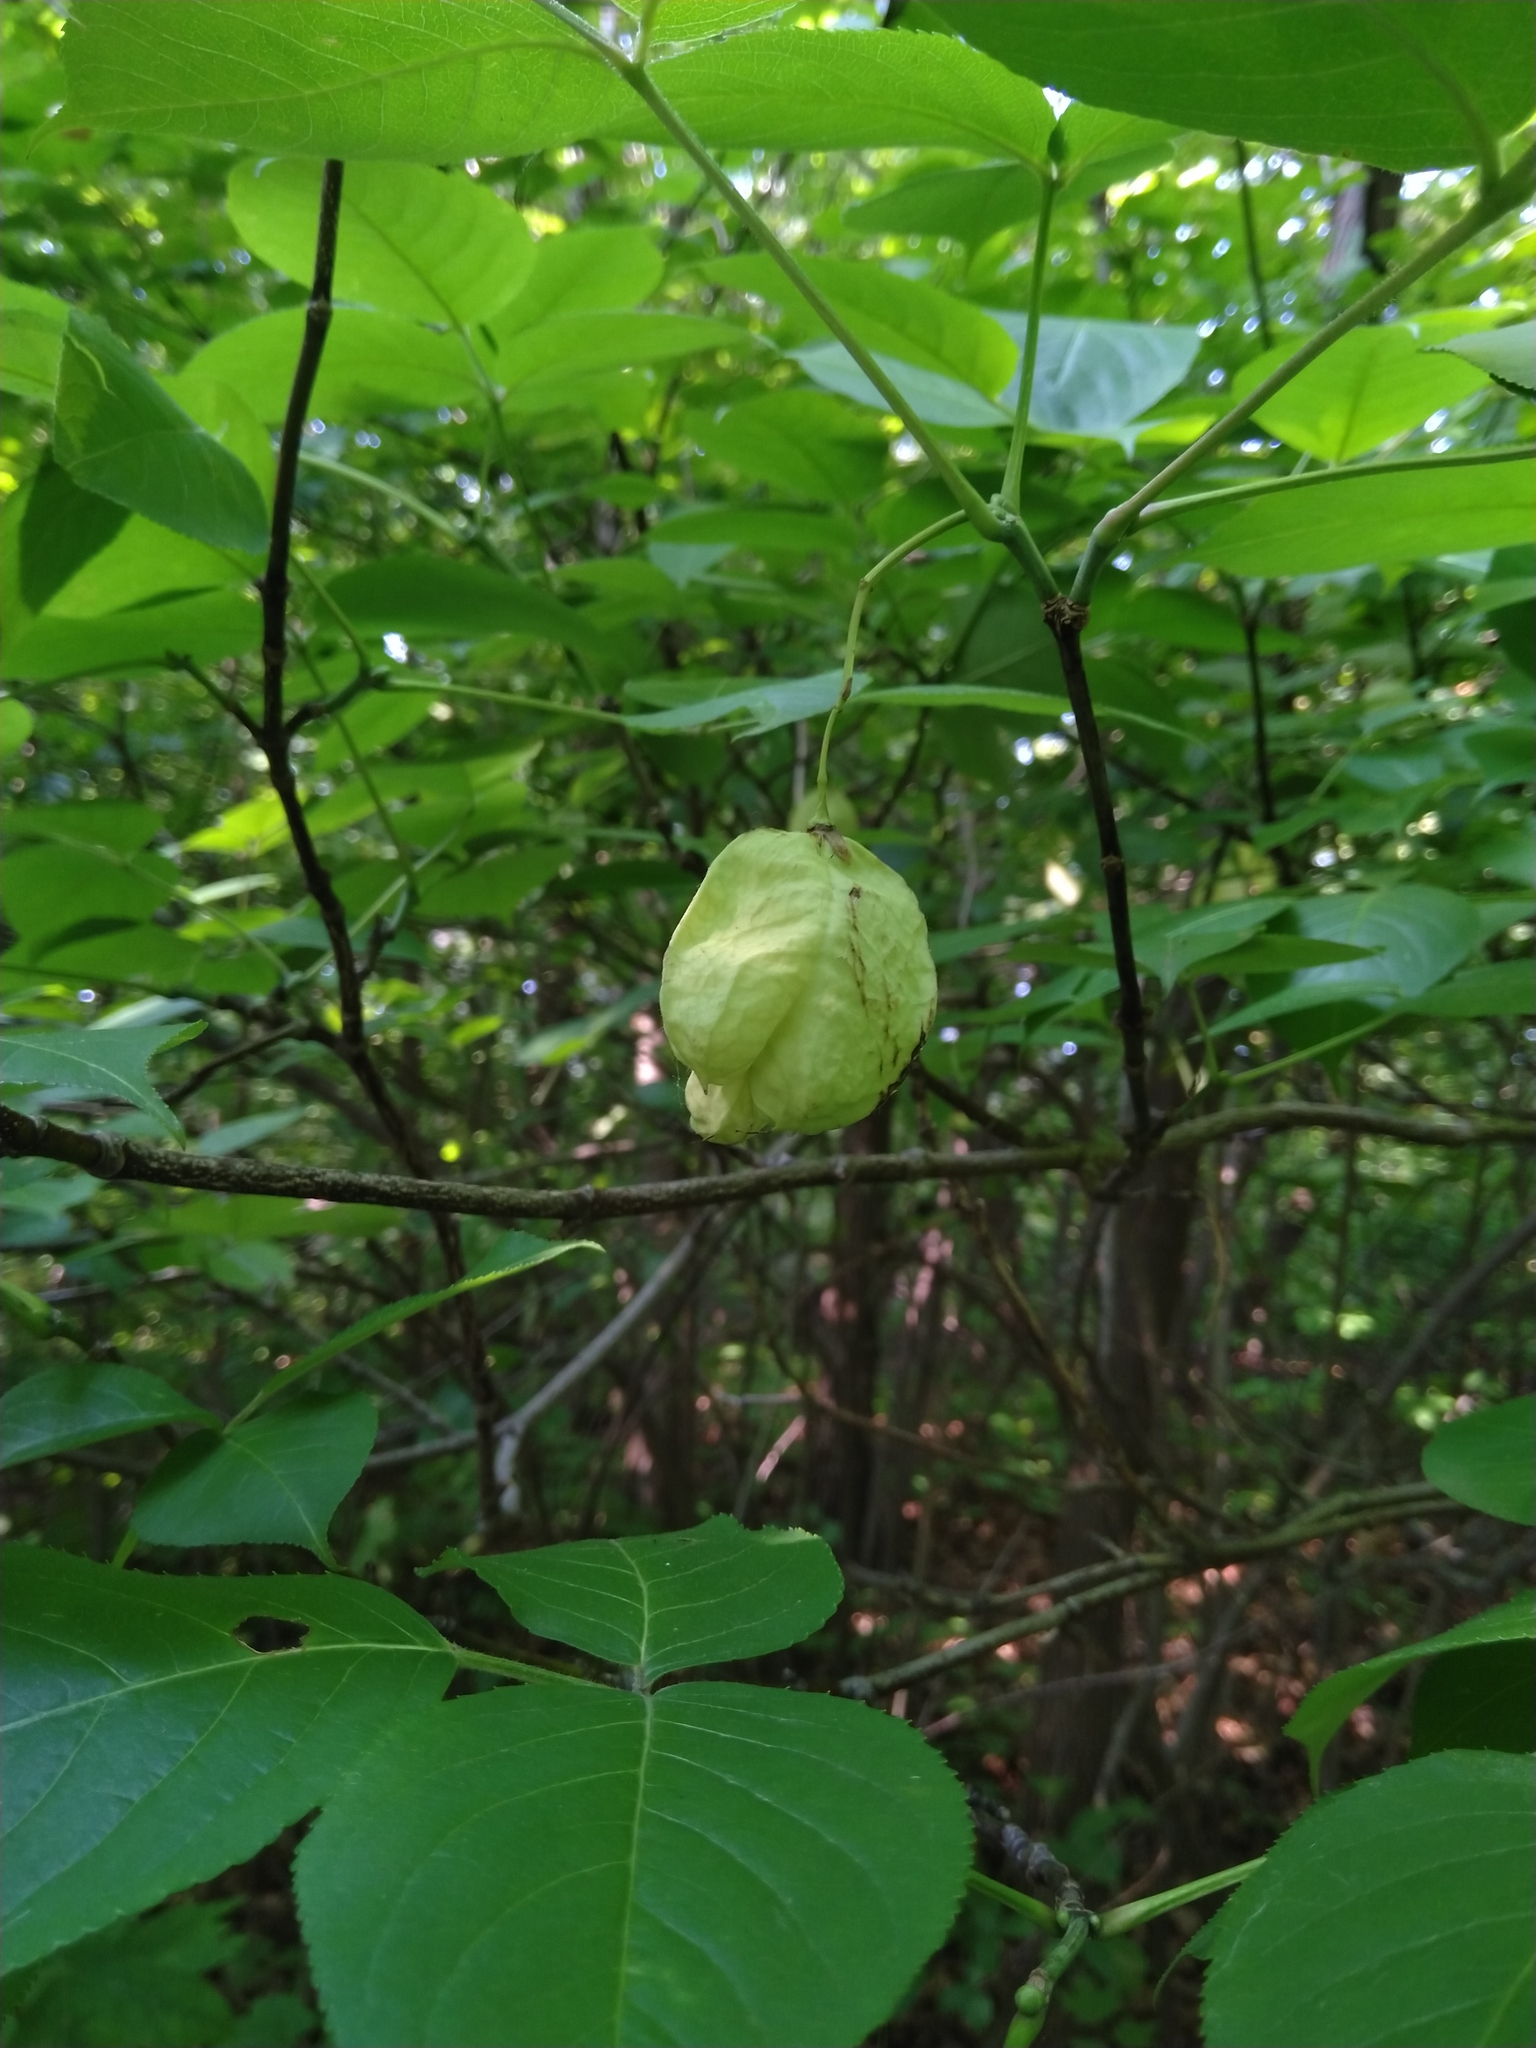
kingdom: Plantae
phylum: Tracheophyta
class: Magnoliopsida
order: Crossosomatales
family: Staphyleaceae
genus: Staphylea
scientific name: Staphylea trifolia
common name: American bladdernut
